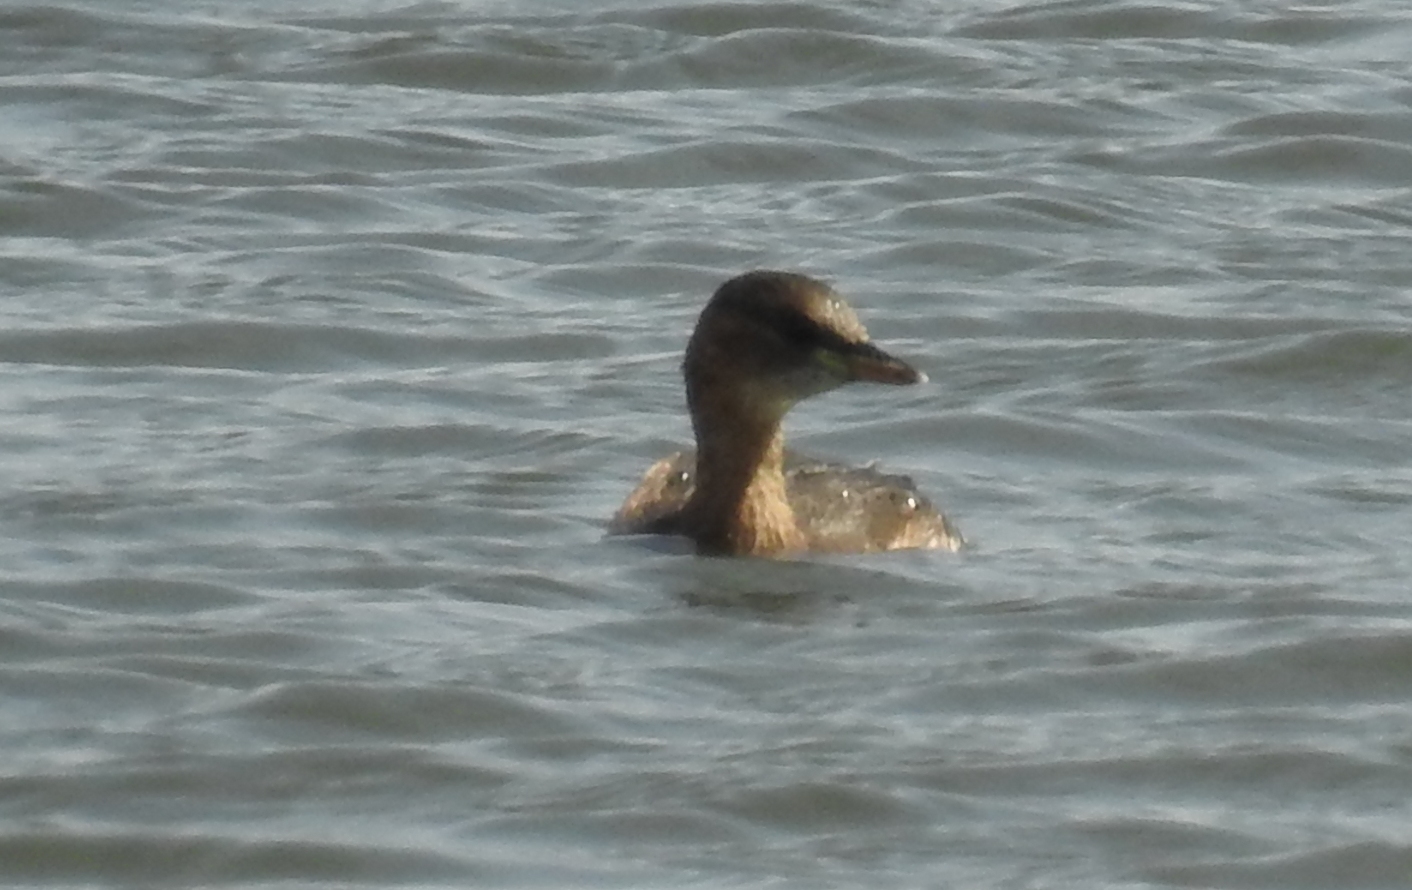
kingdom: Animalia
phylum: Chordata
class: Aves
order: Podicipediformes
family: Podicipedidae
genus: Tachybaptus
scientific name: Tachybaptus ruficollis
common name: Little grebe
